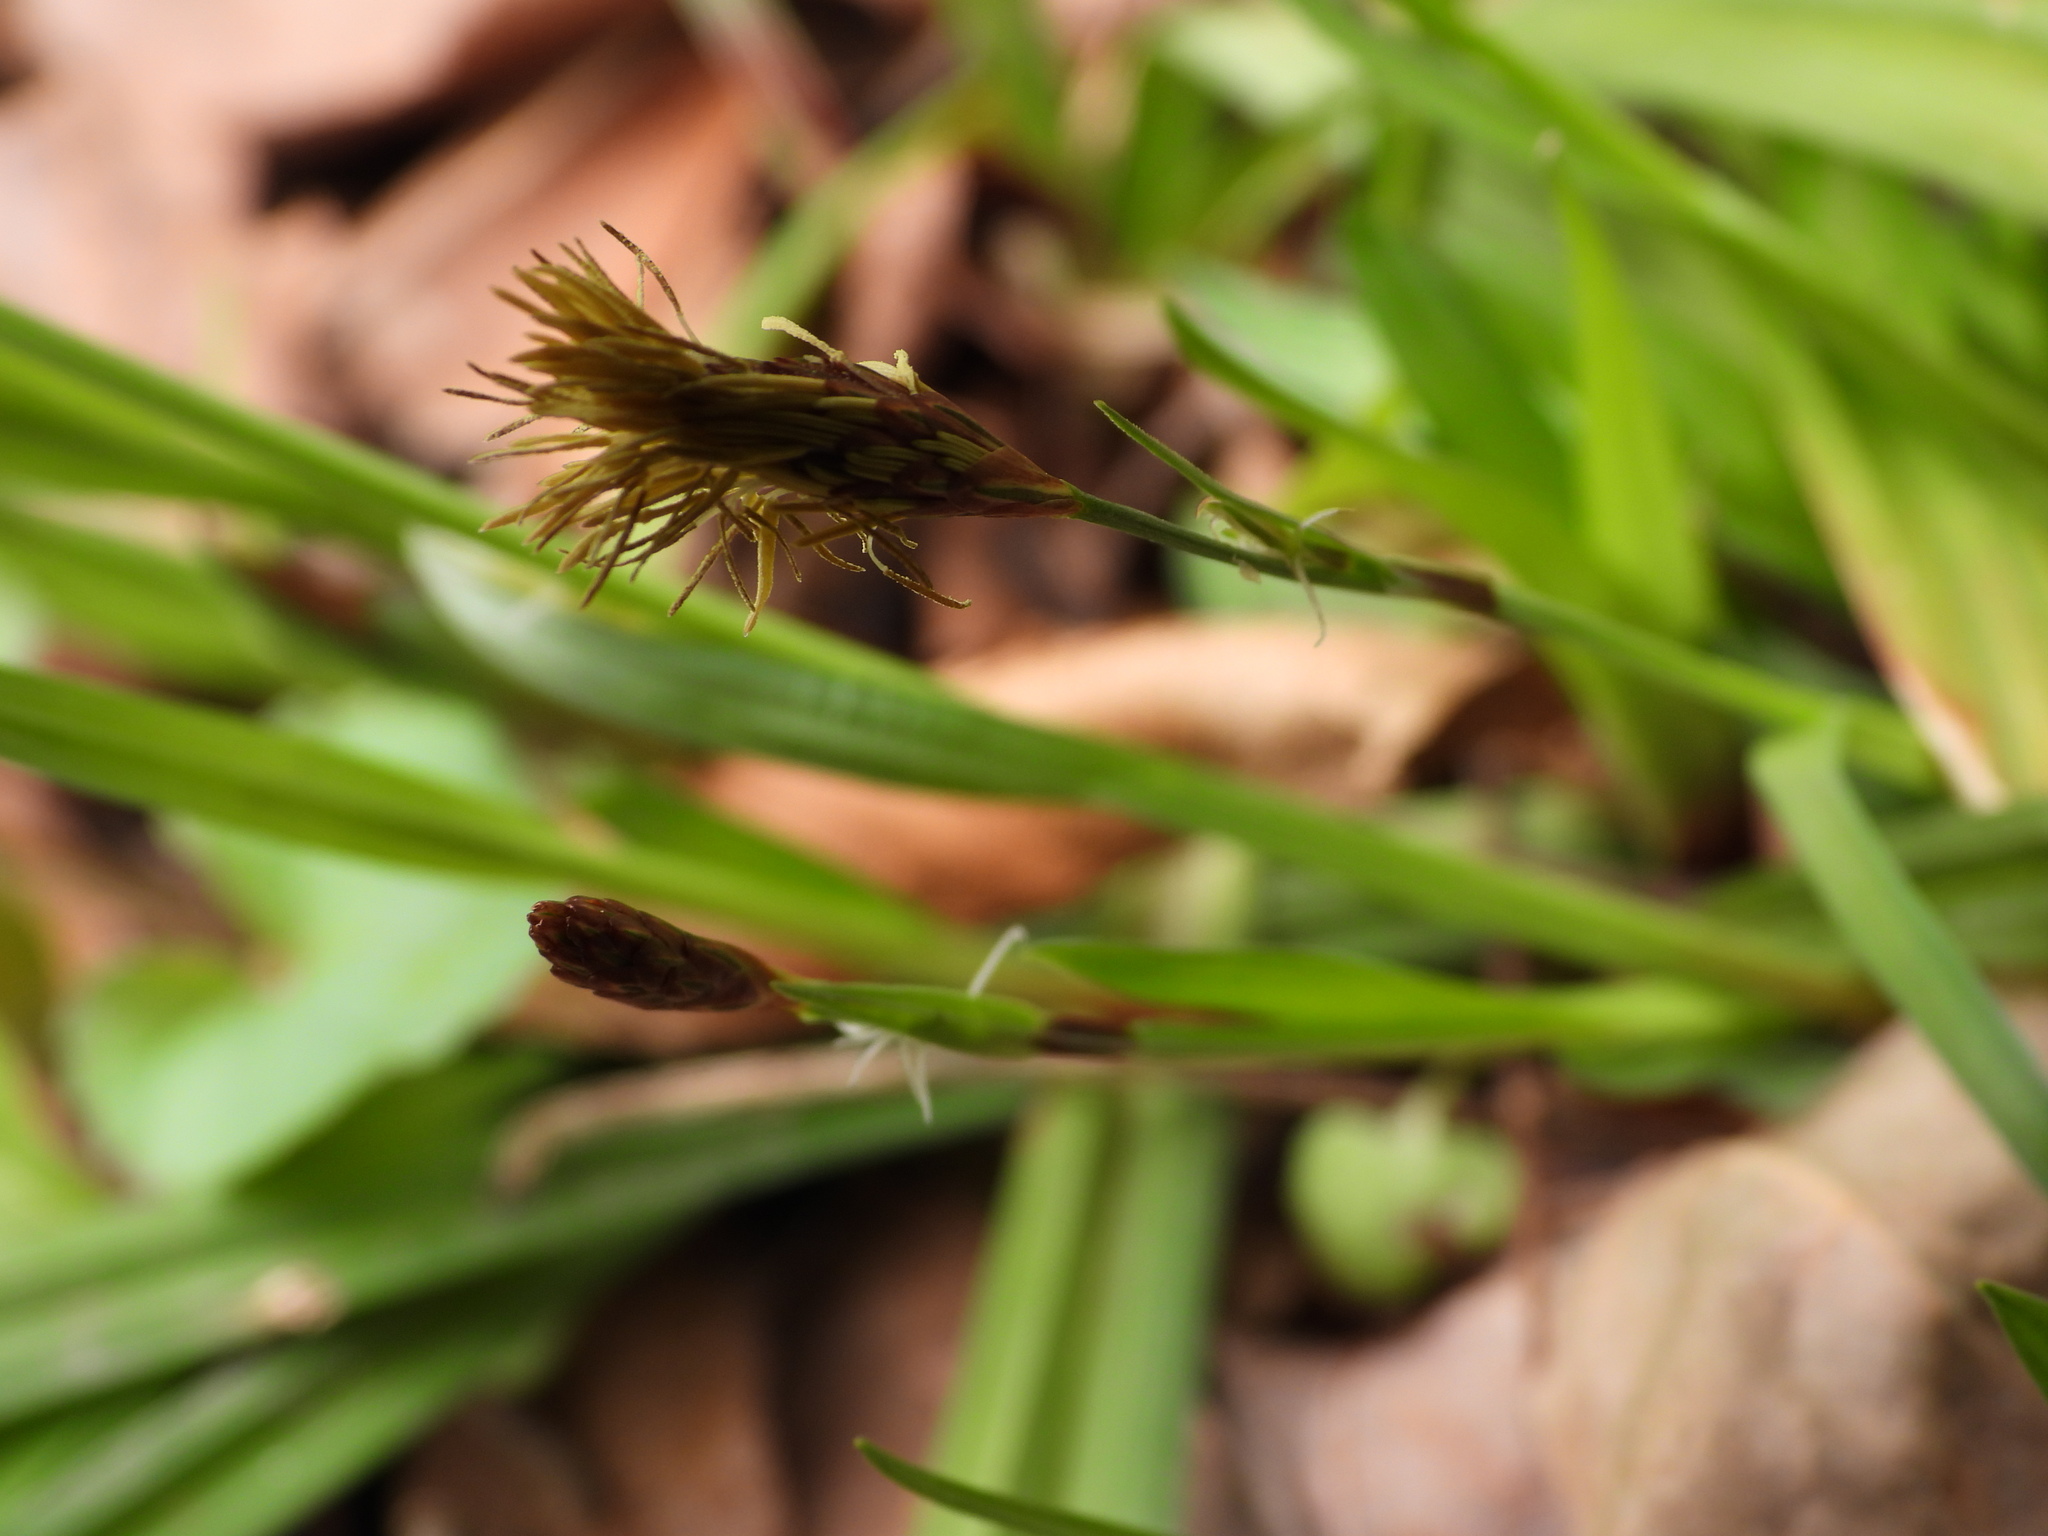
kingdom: Plantae
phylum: Tracheophyta
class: Liliopsida
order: Poales
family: Cyperaceae
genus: Carex
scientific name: Carex careyana
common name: Carey's sedge
